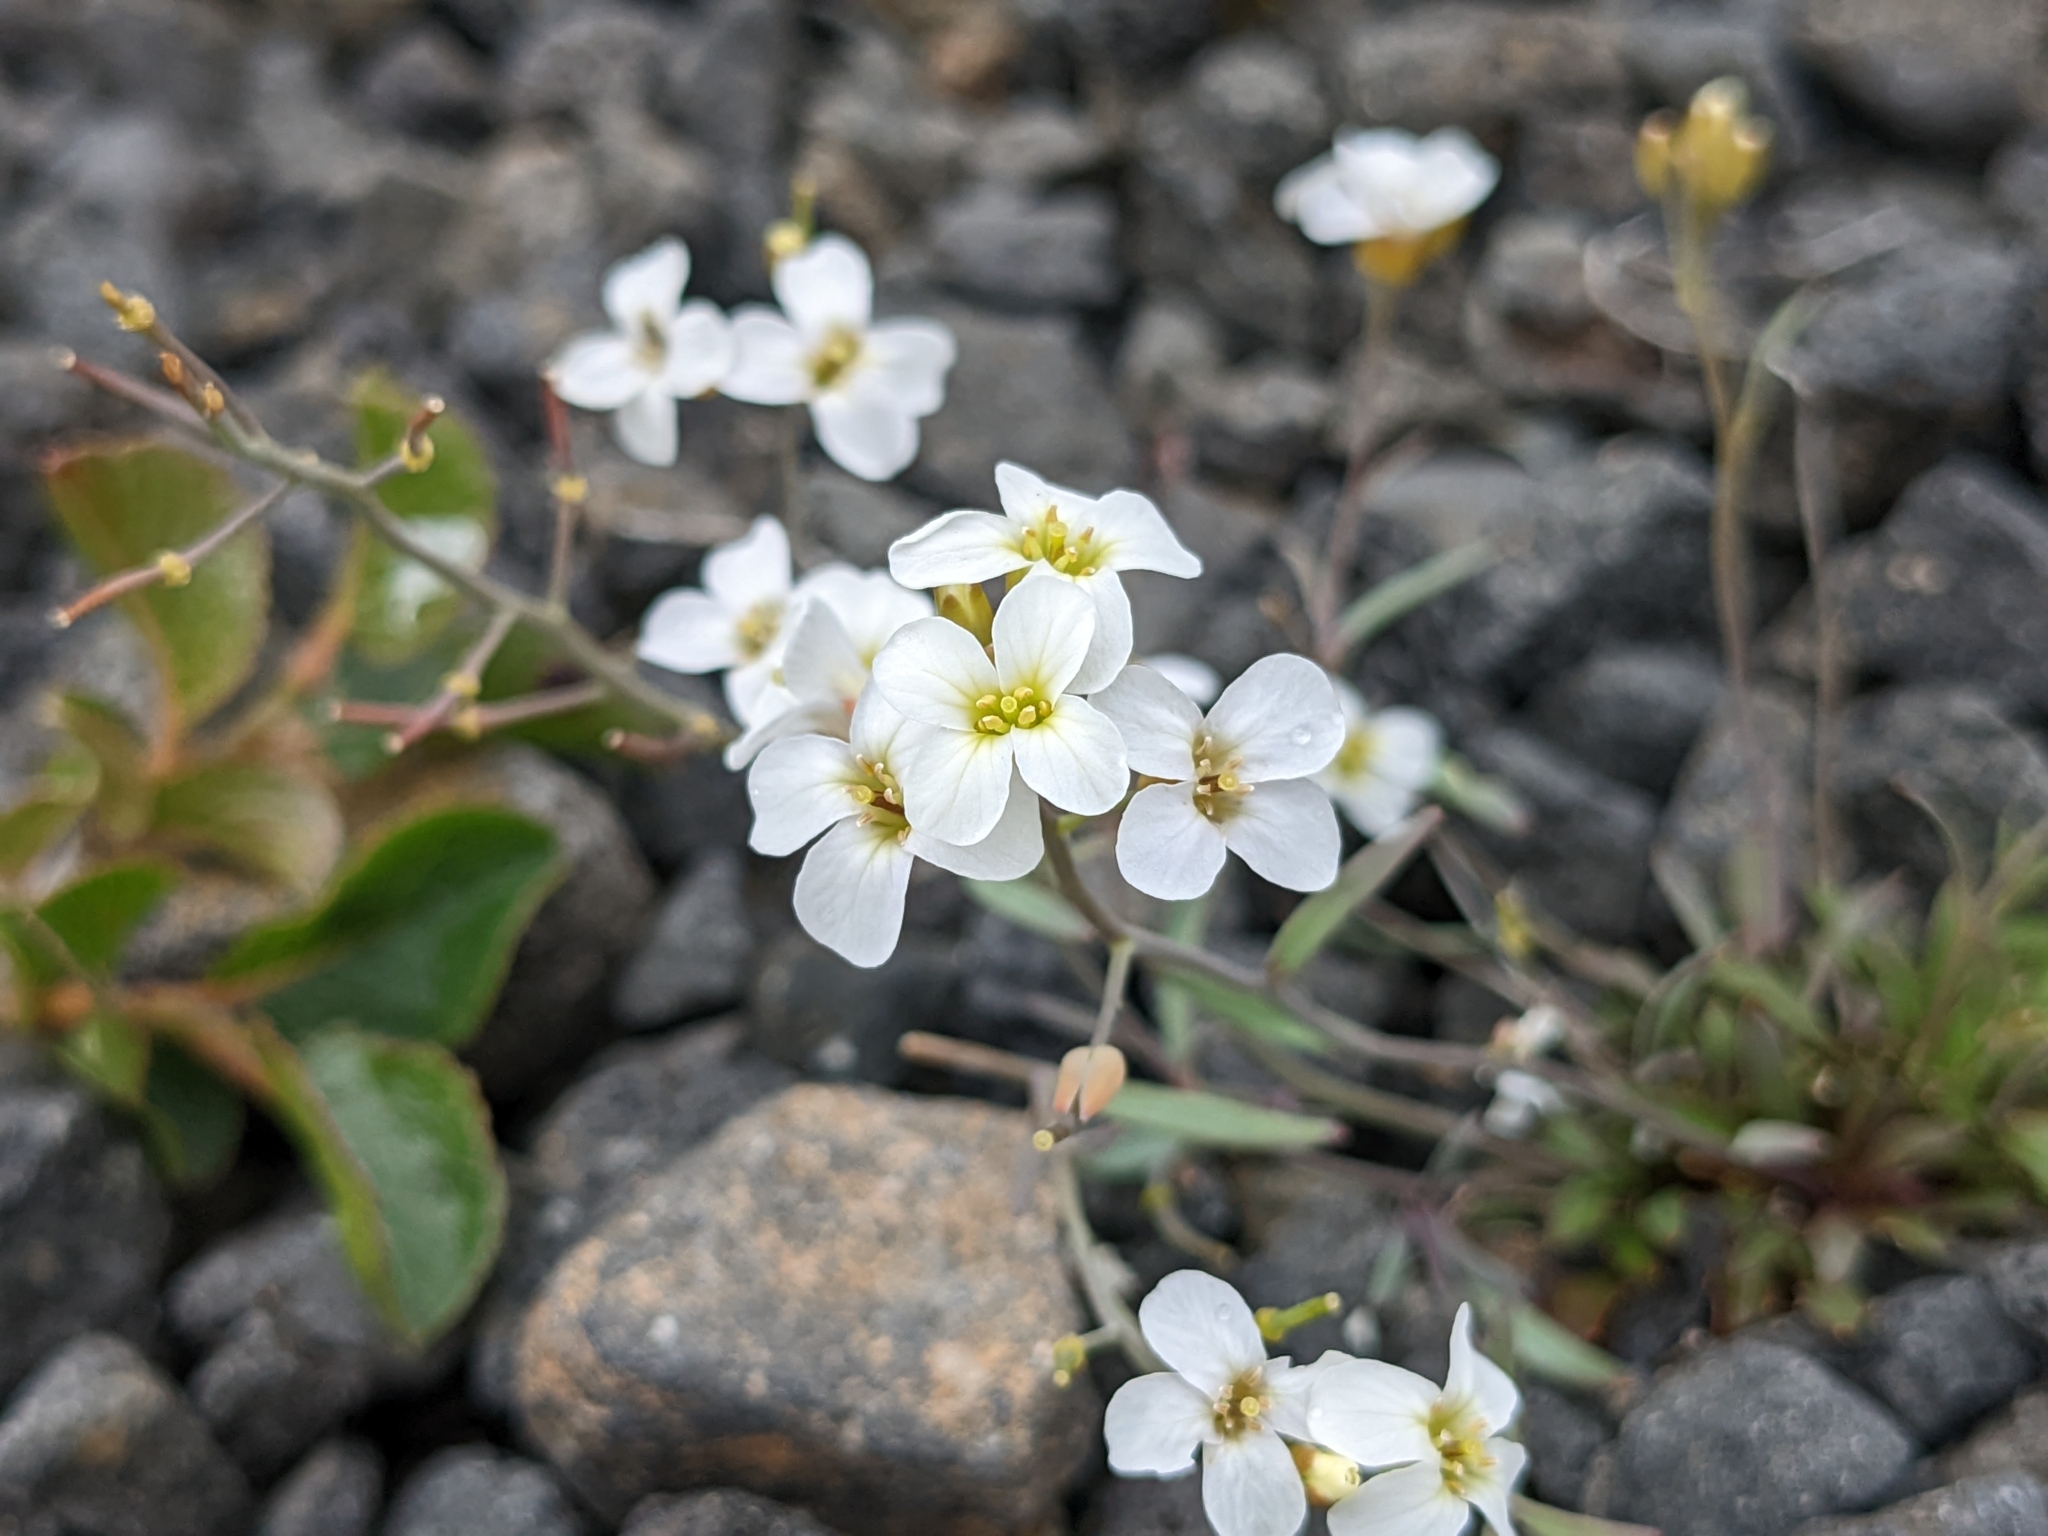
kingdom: Plantae
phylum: Tracheophyta
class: Magnoliopsida
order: Brassicales
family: Brassicaceae
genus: Arabidopsis
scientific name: Arabidopsis lyrata
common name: Lyrate rockcress
